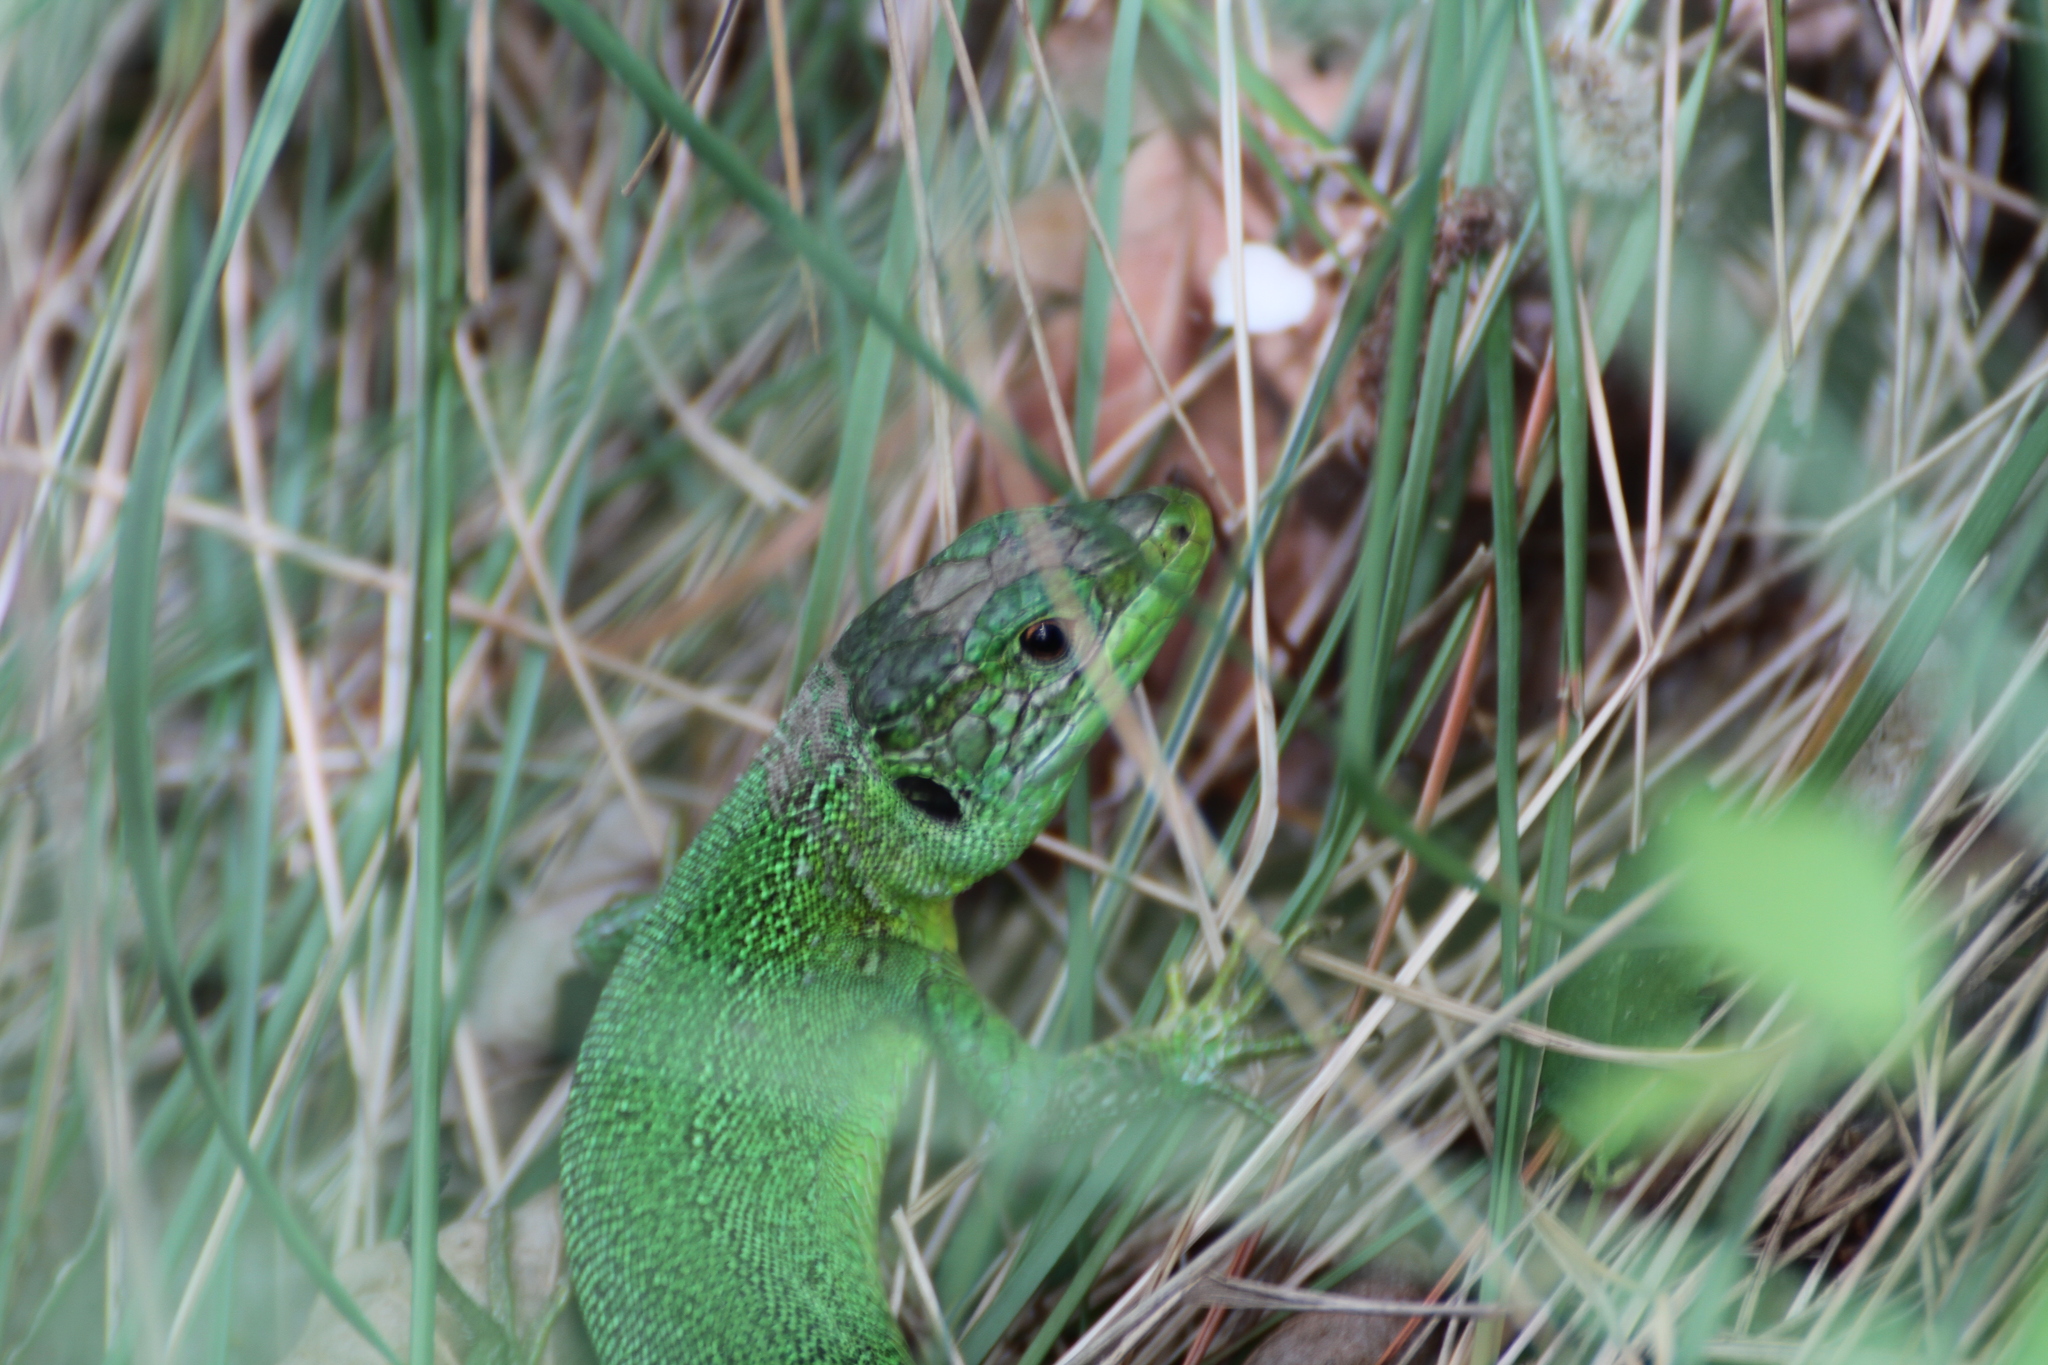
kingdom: Animalia
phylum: Chordata
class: Squamata
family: Lacertidae
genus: Lacerta
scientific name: Lacerta bilineata
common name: Western green lizard
